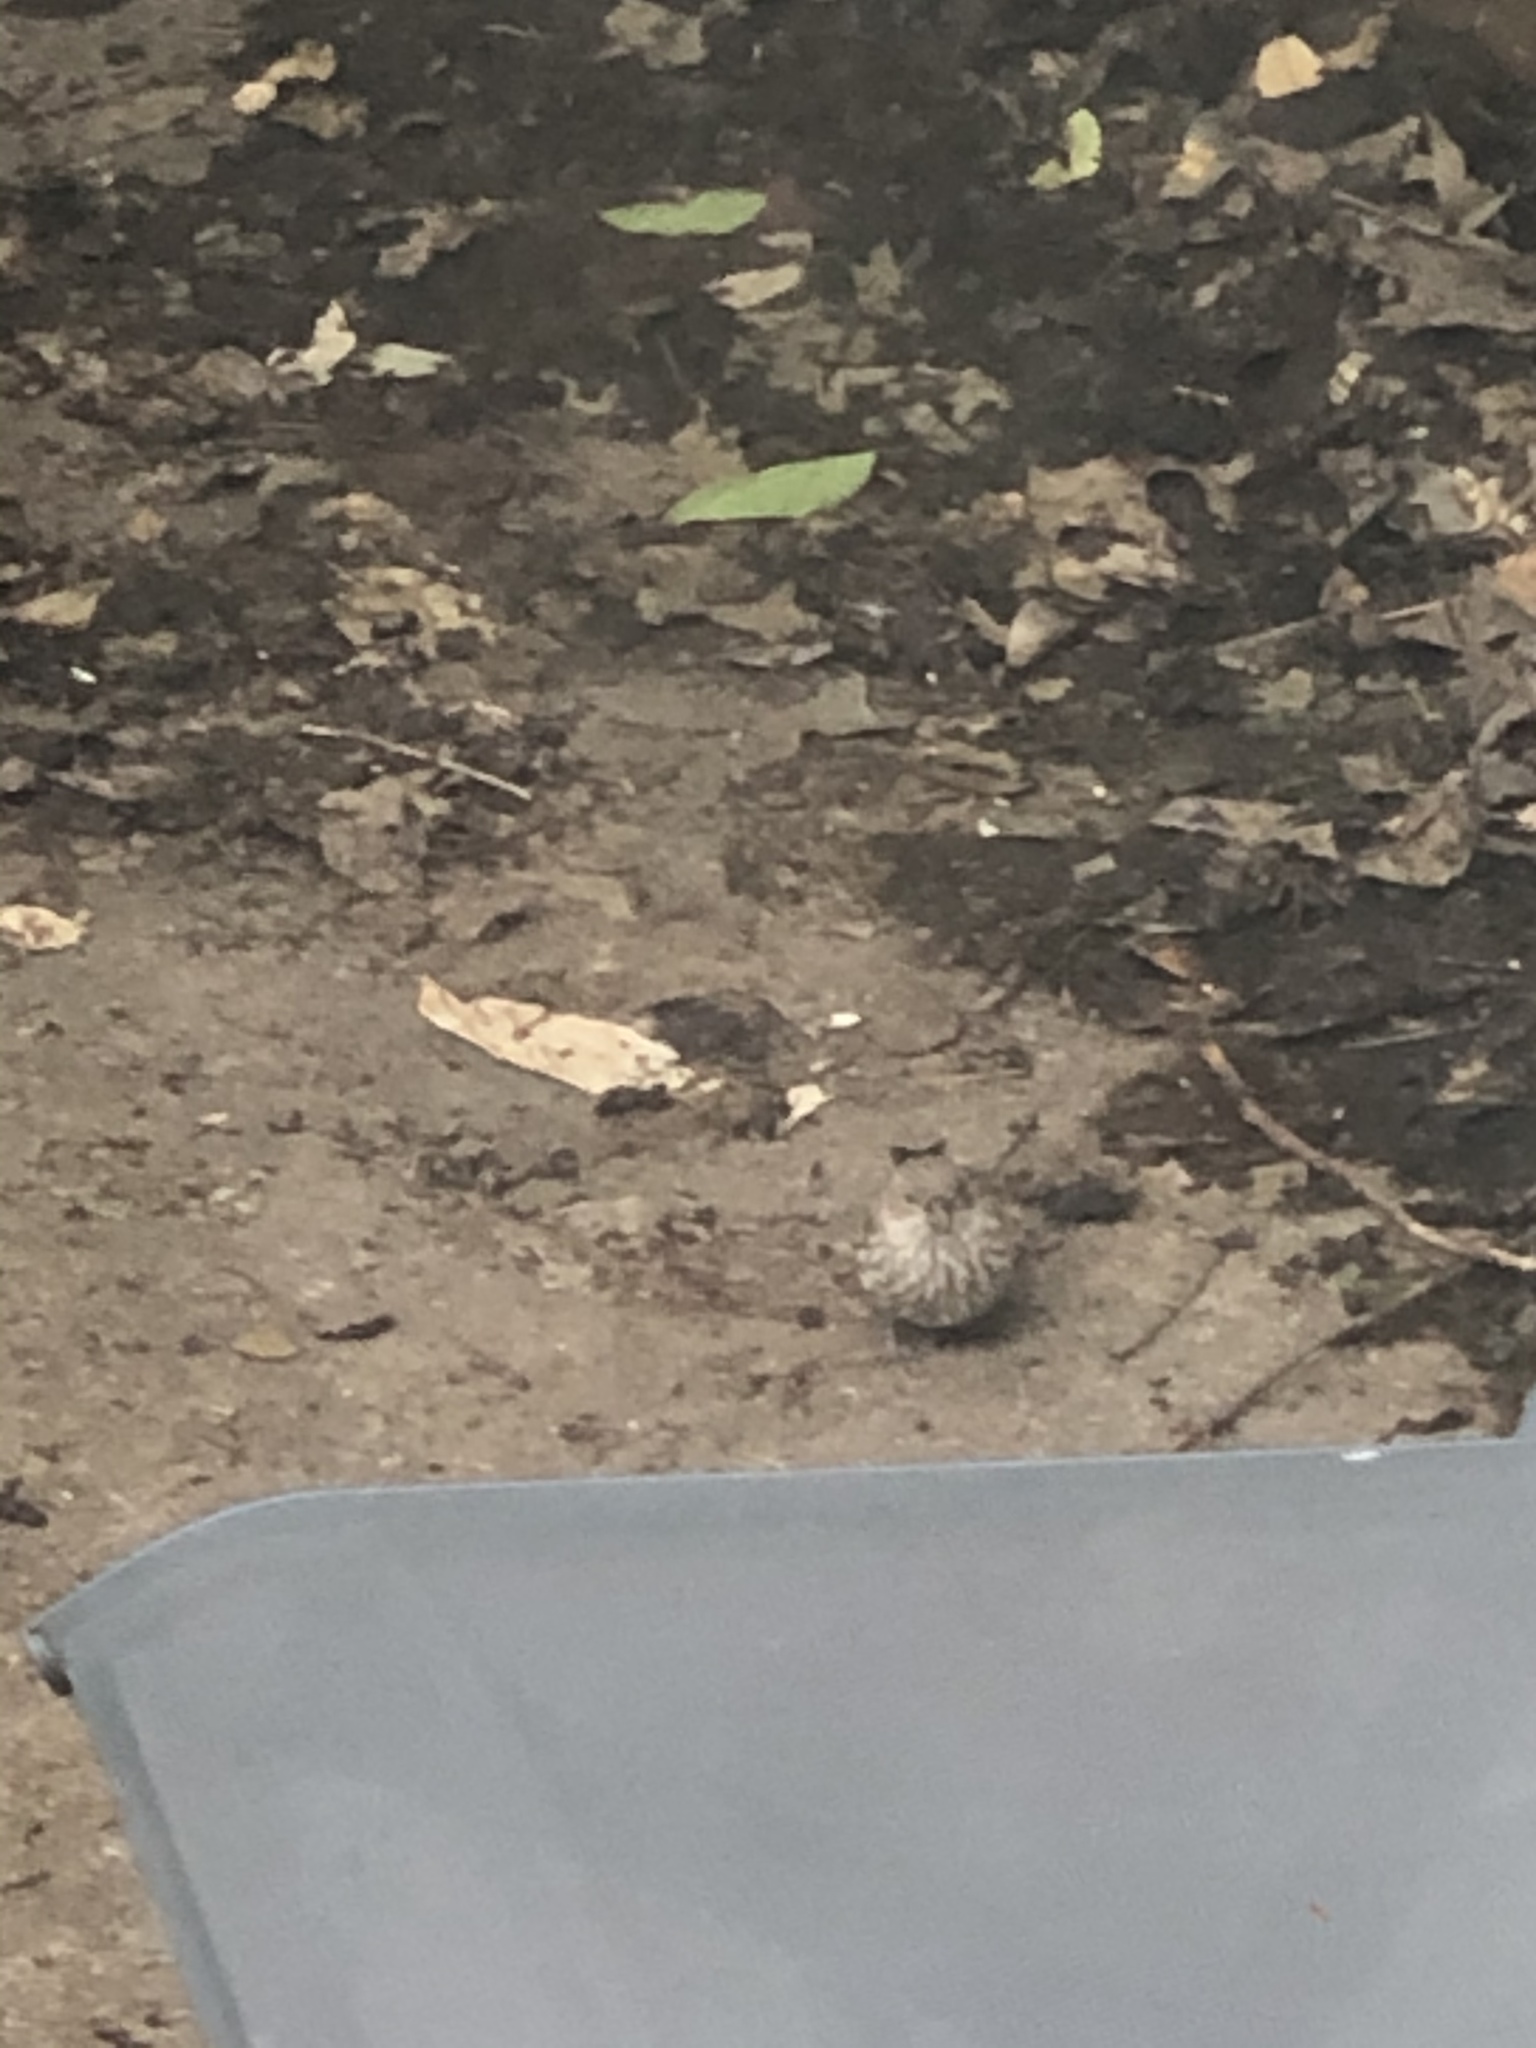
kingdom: Animalia
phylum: Chordata
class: Aves
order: Passeriformes
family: Fringillidae
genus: Haemorhous
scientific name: Haemorhous mexicanus
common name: House finch
